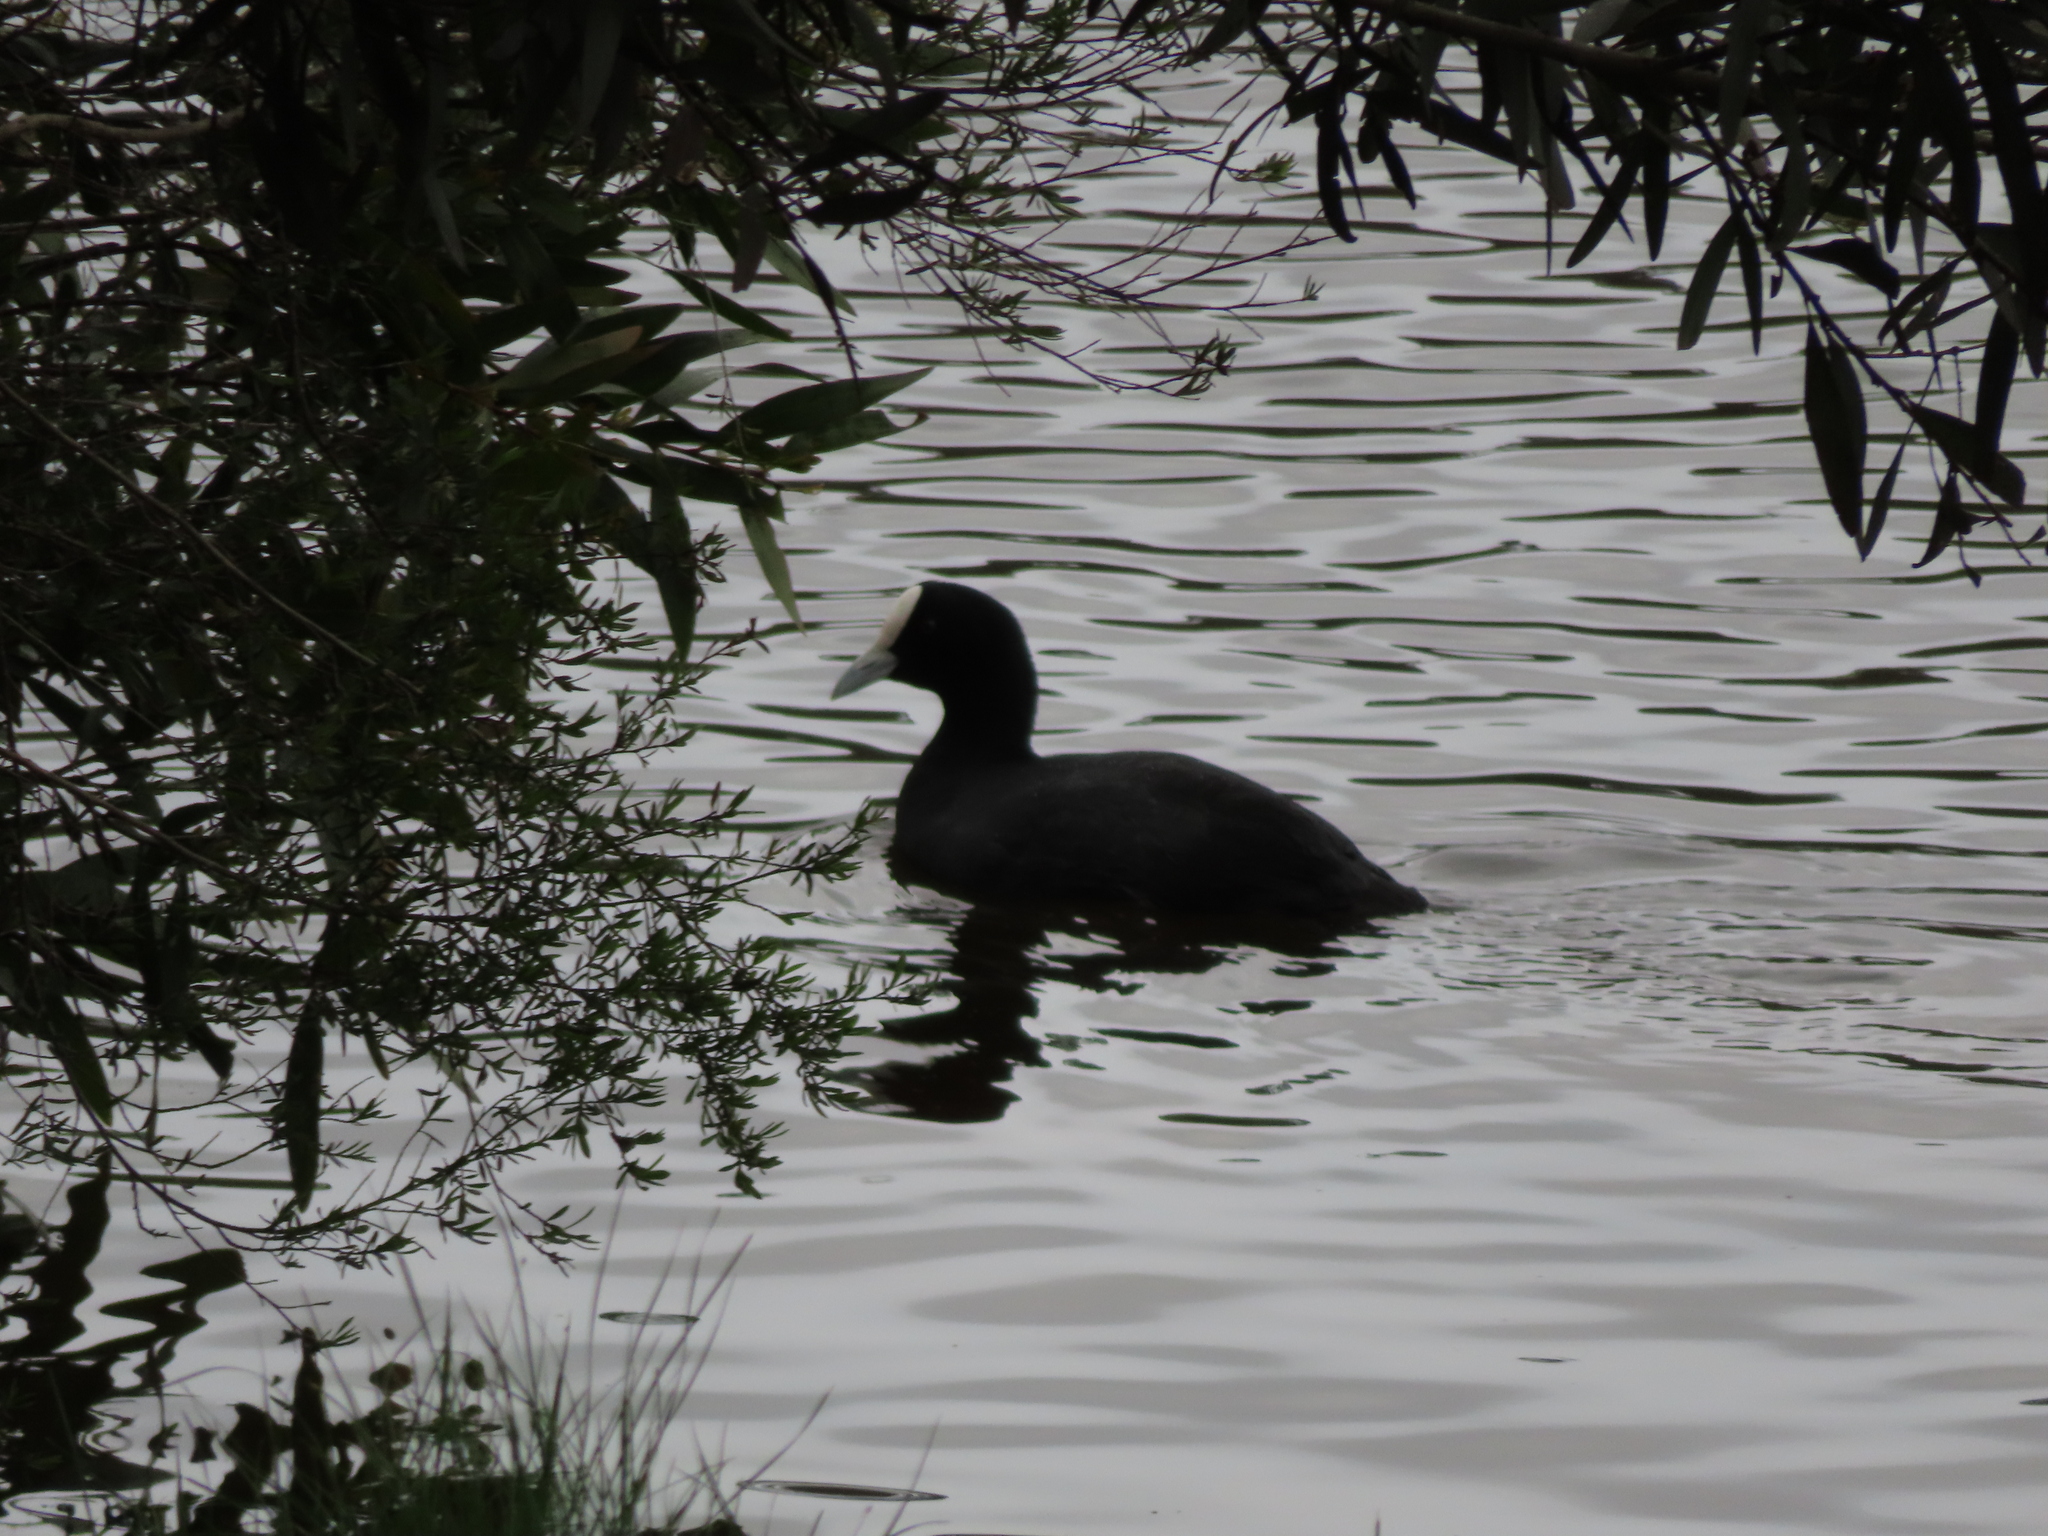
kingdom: Animalia
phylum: Chordata
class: Aves
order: Gruiformes
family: Rallidae
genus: Fulica
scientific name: Fulica atra
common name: Eurasian coot
